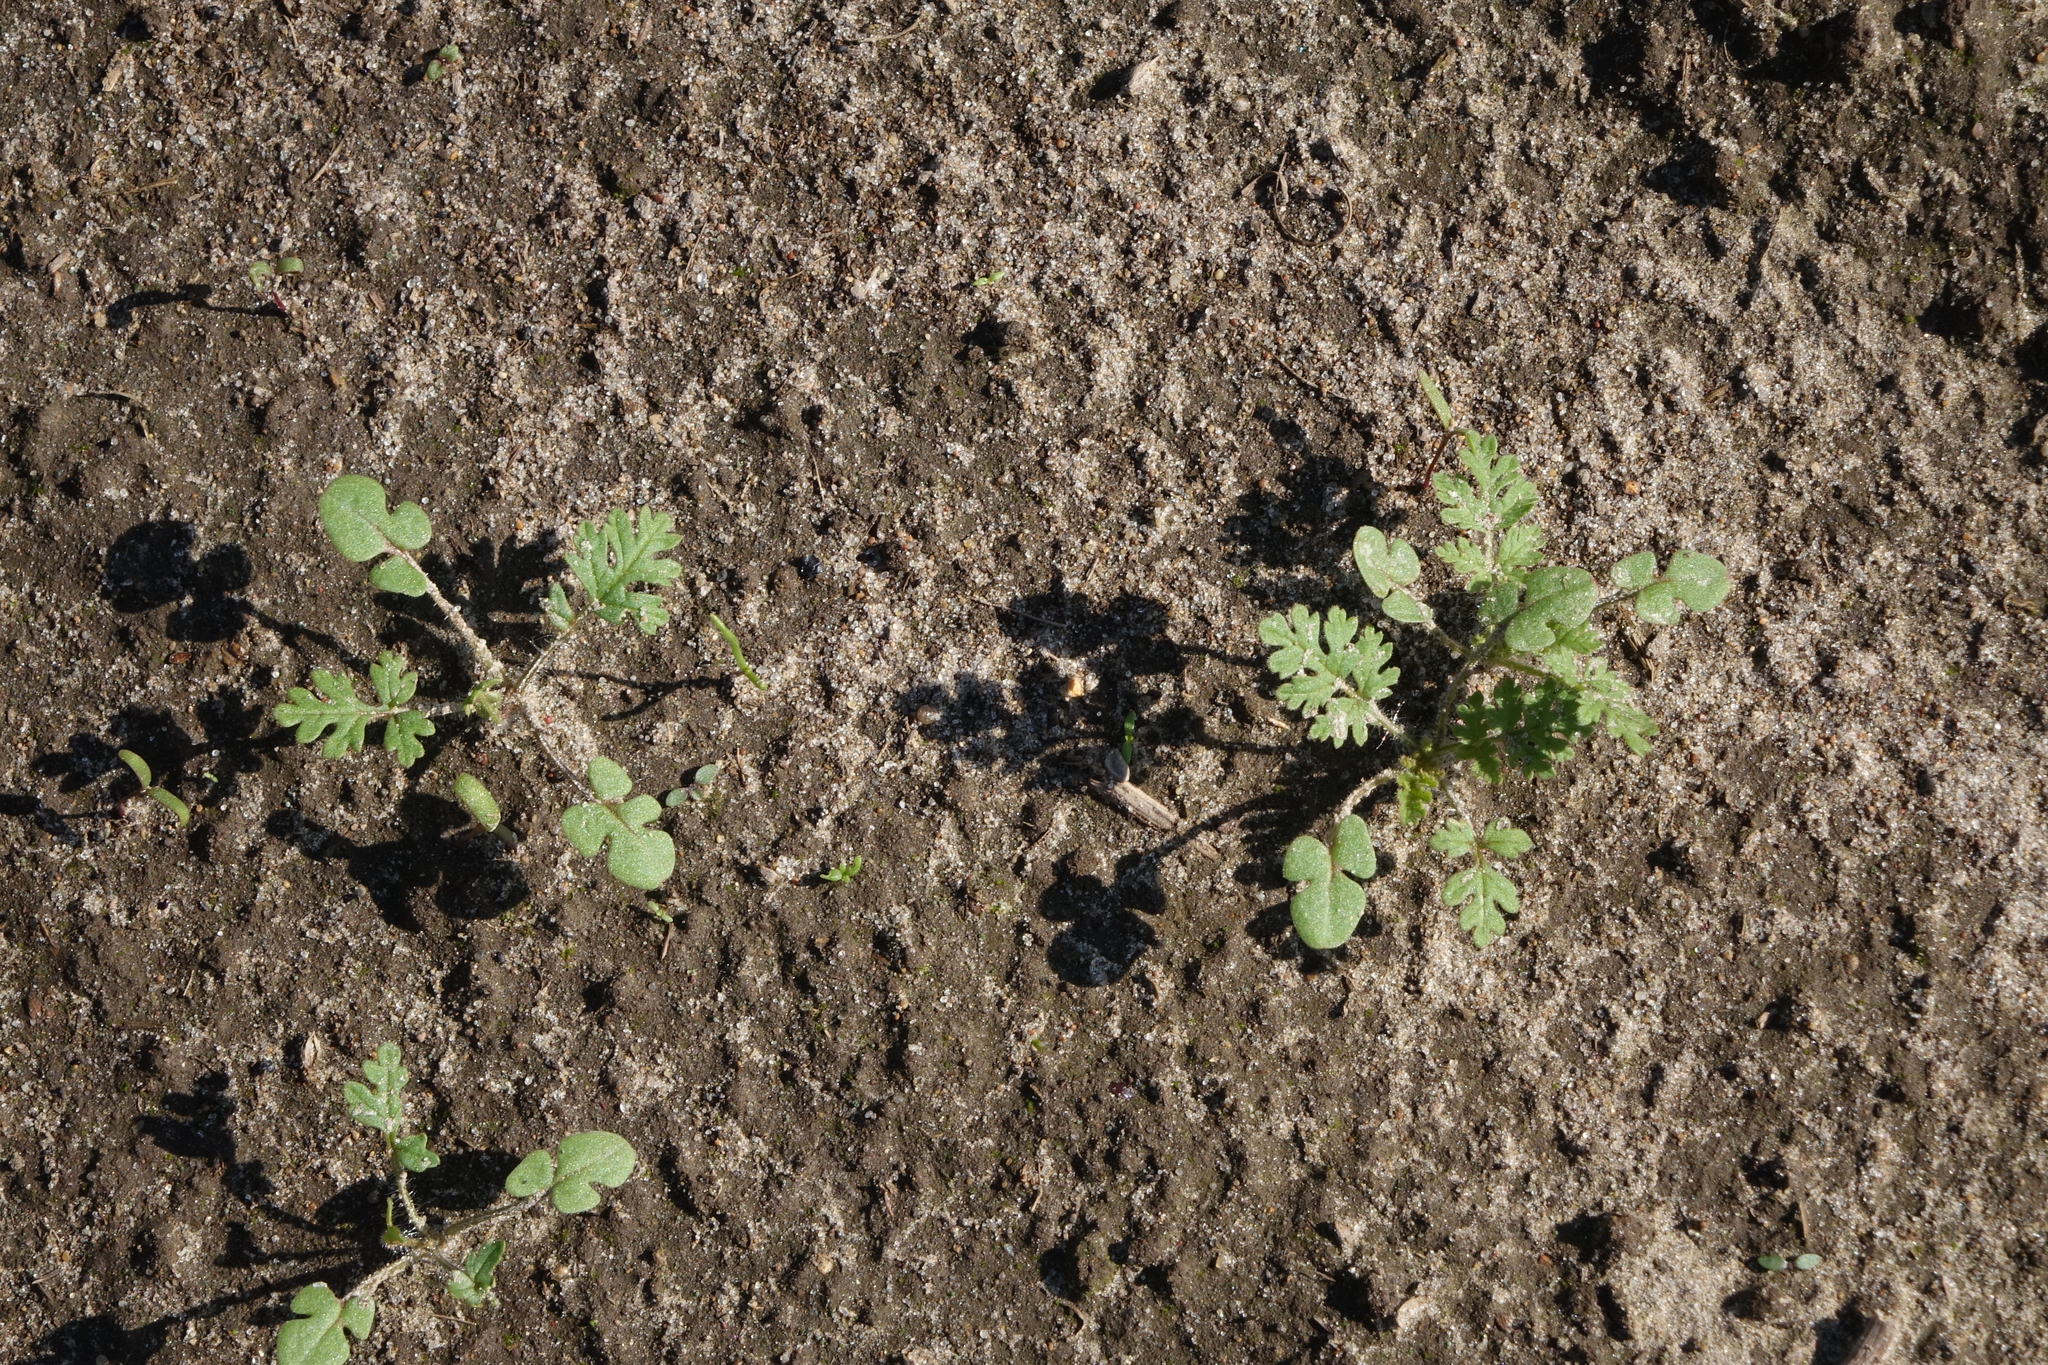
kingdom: Plantae
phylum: Tracheophyta
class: Magnoliopsida
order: Geraniales
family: Geraniaceae
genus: Erodium
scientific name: Erodium cicutarium
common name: Common stork's-bill
